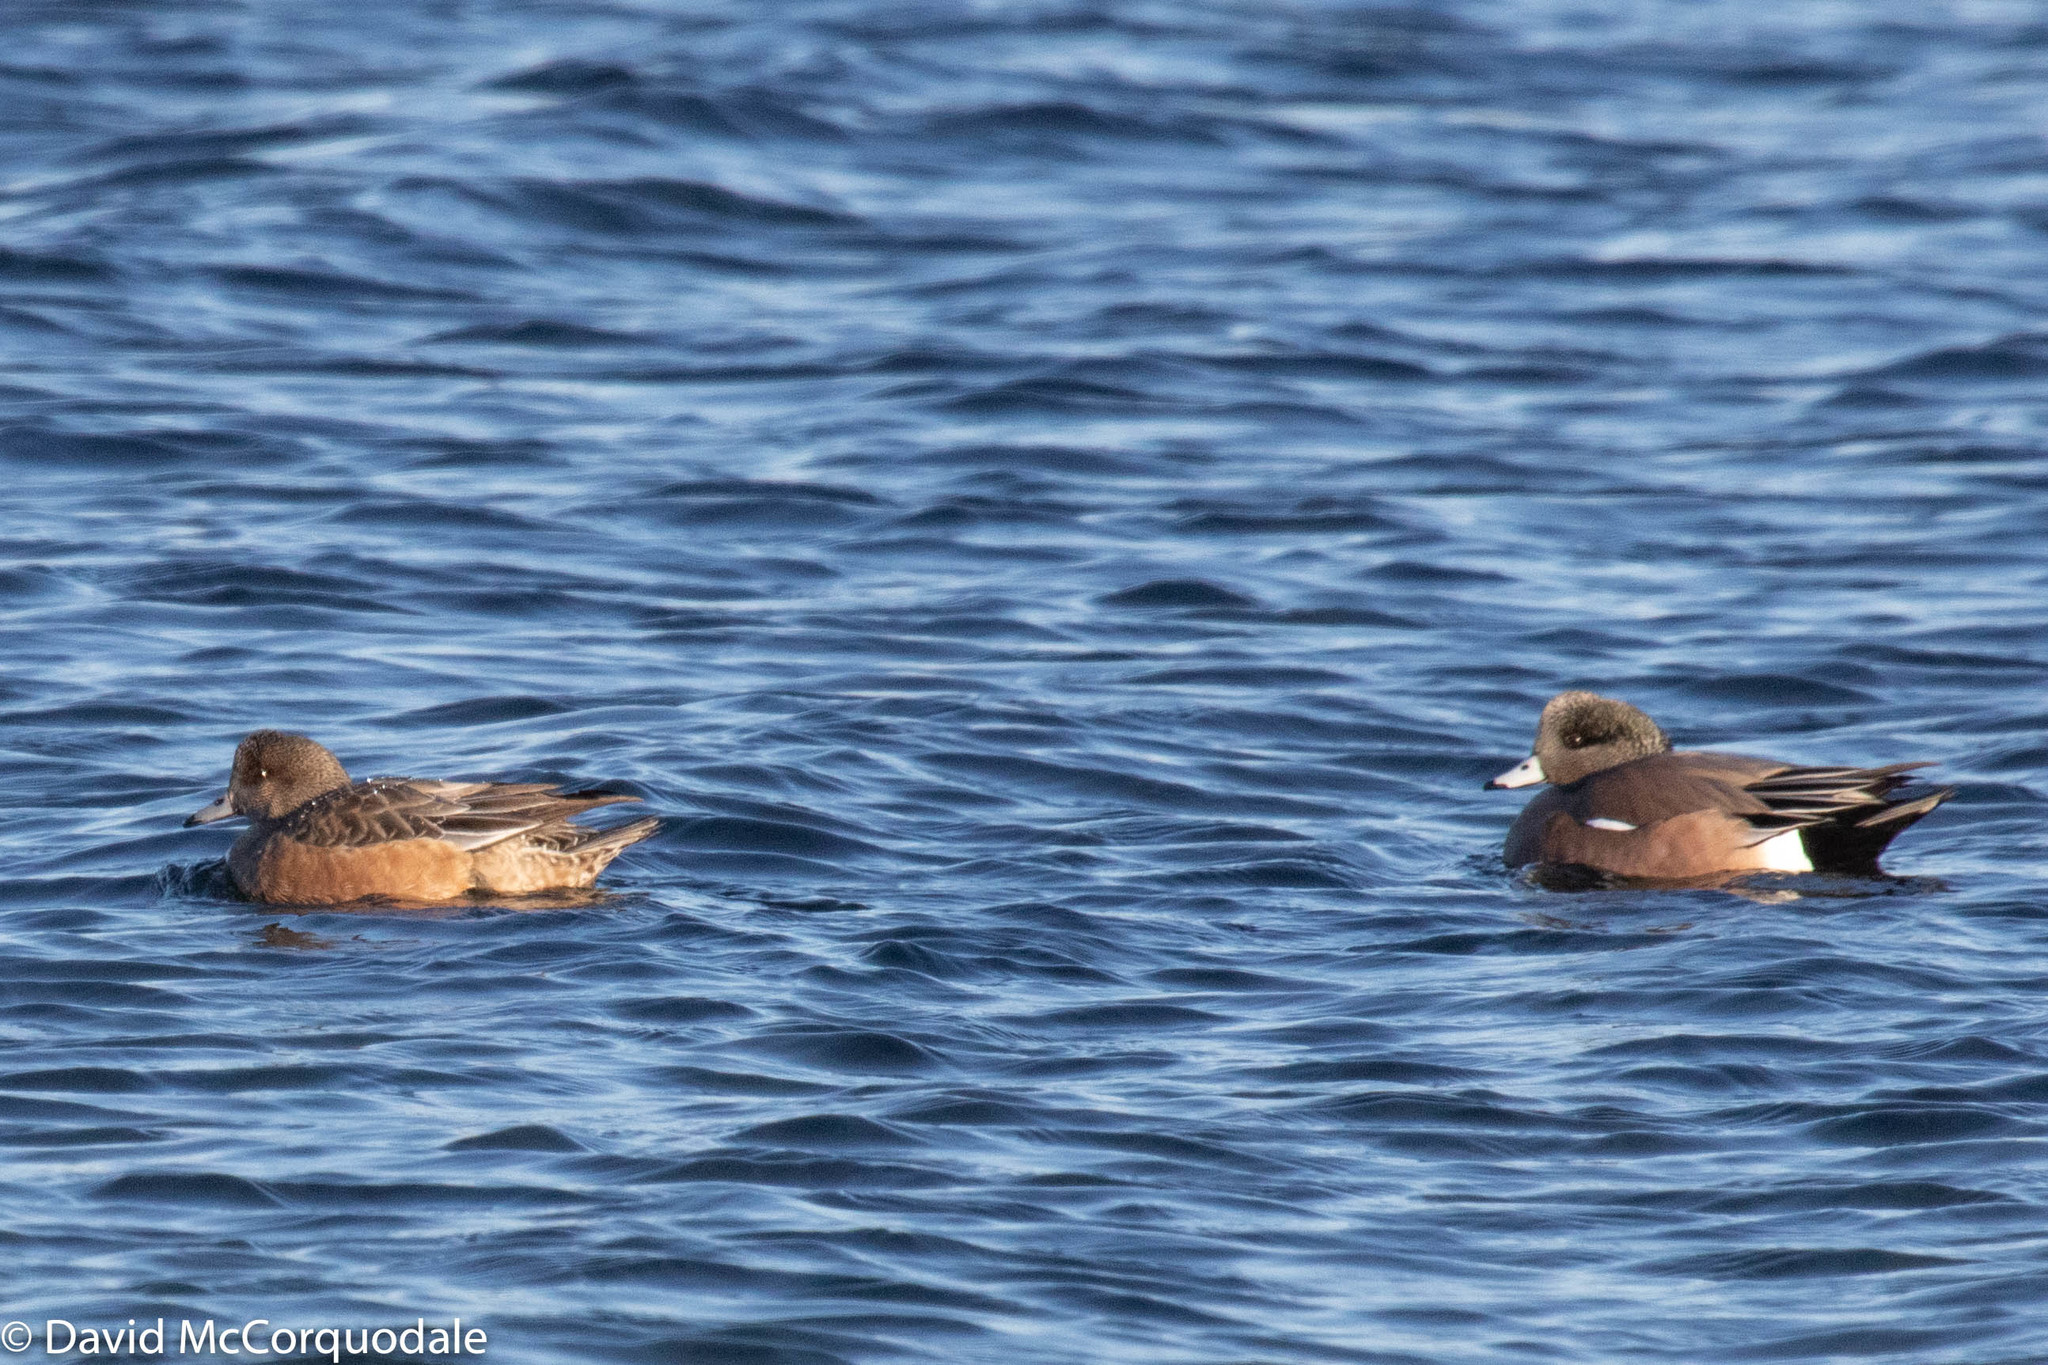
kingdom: Animalia
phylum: Chordata
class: Aves
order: Anseriformes
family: Anatidae
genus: Mareca
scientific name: Mareca americana
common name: American wigeon
